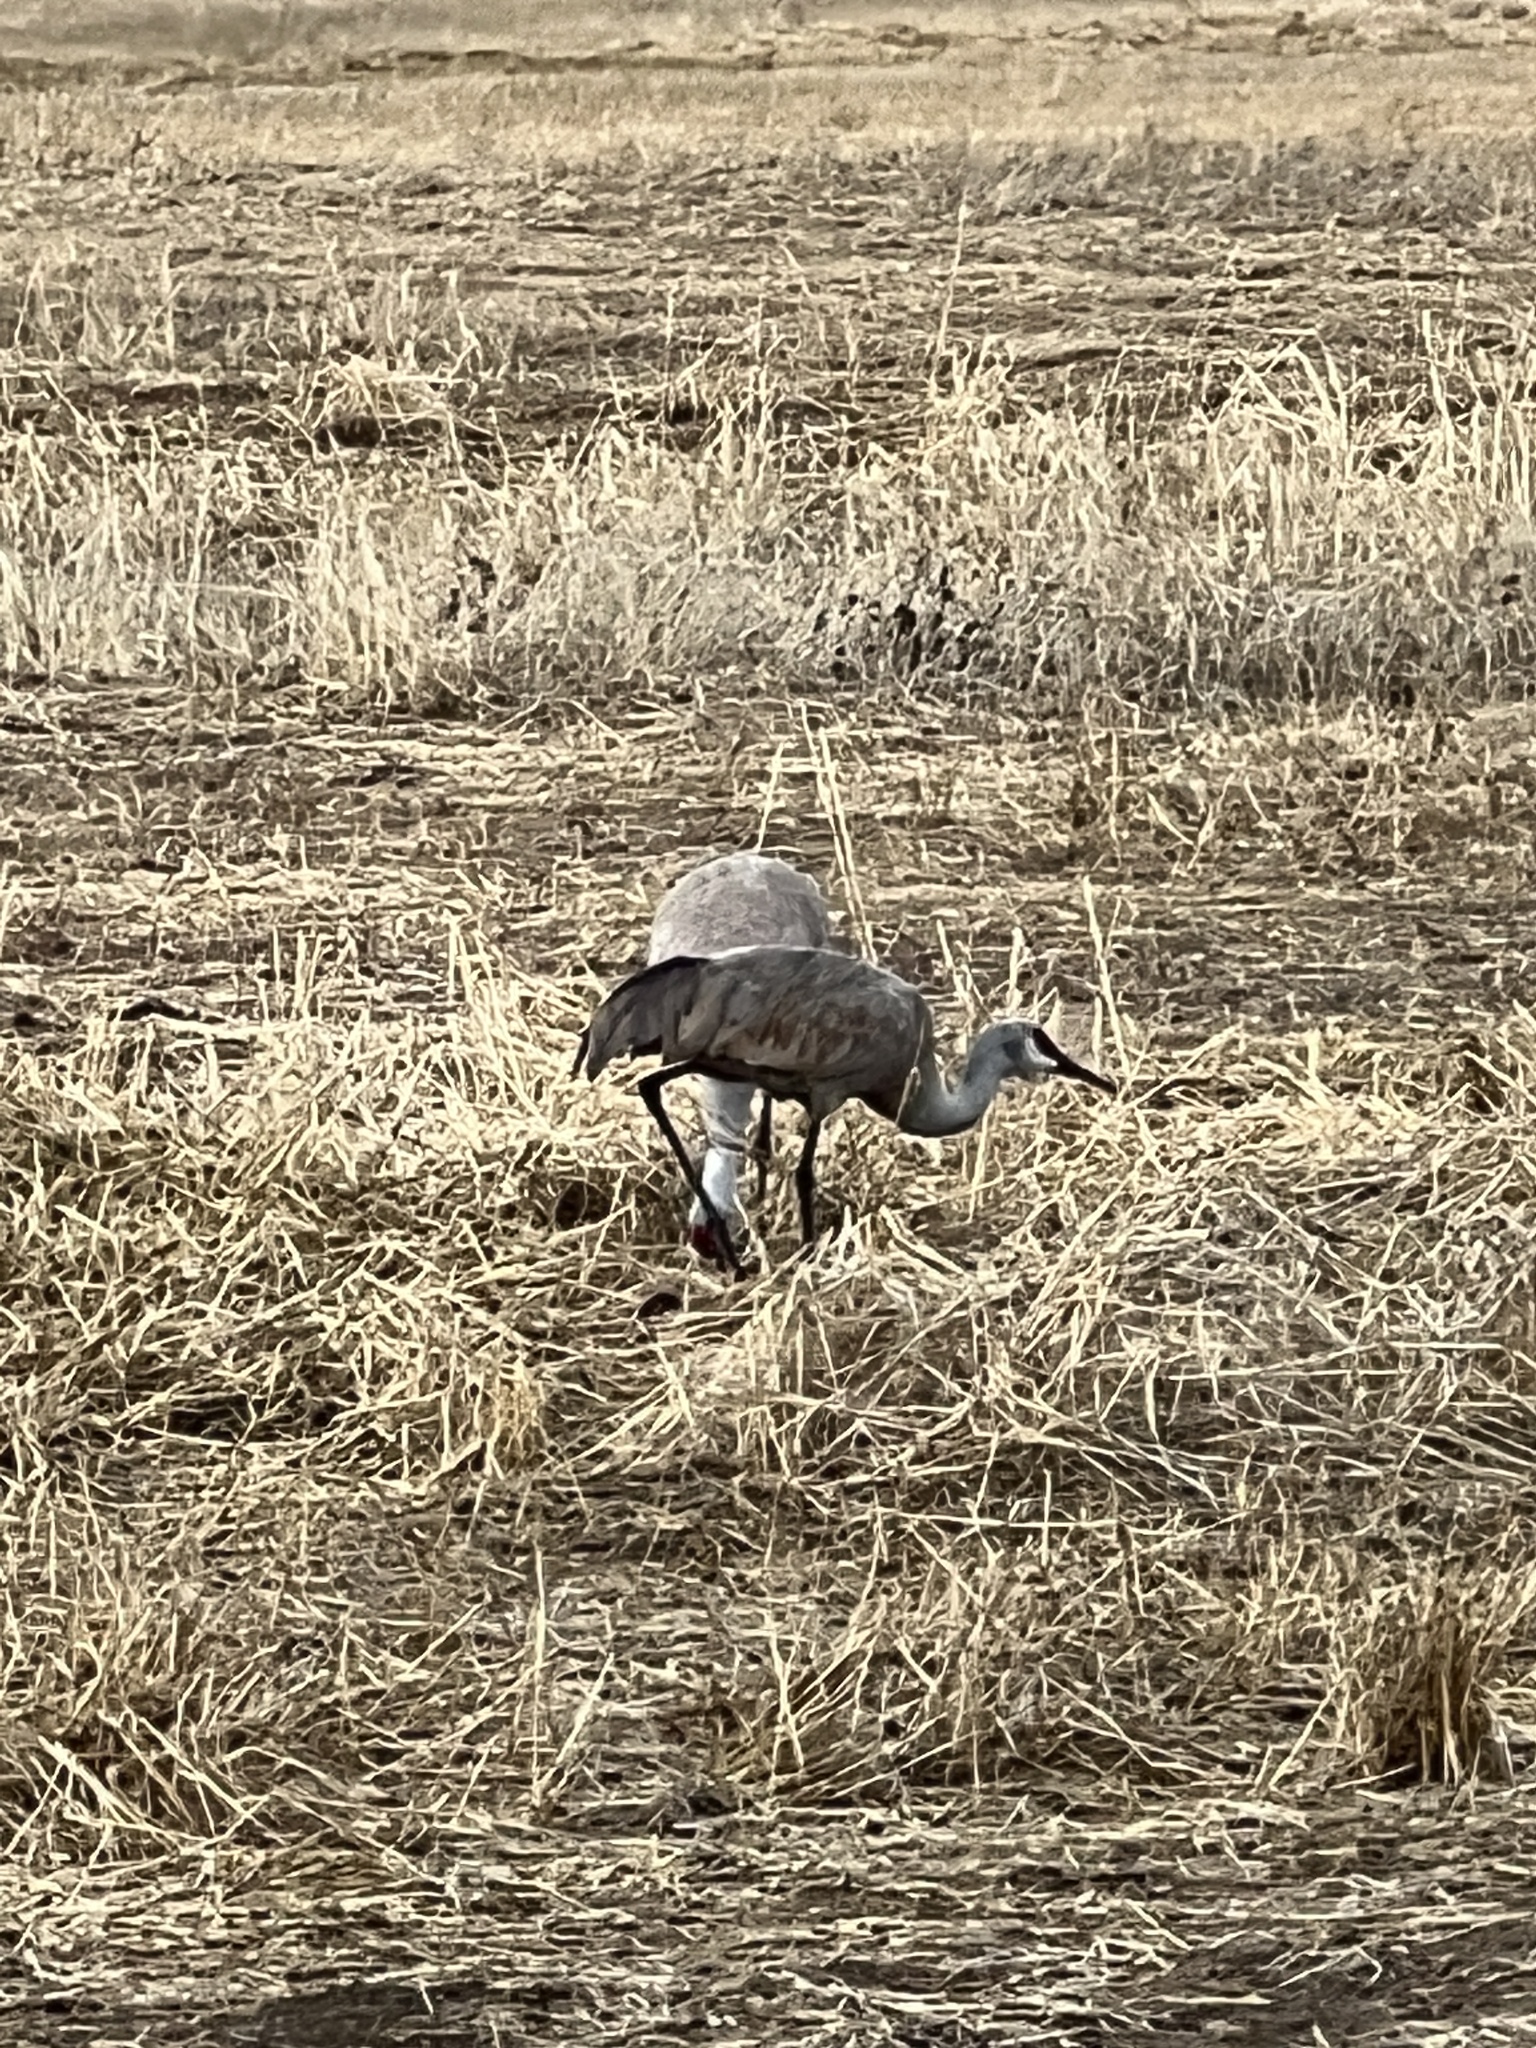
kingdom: Animalia
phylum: Chordata
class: Aves
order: Gruiformes
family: Gruidae
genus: Grus
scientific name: Grus canadensis
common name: Sandhill crane
